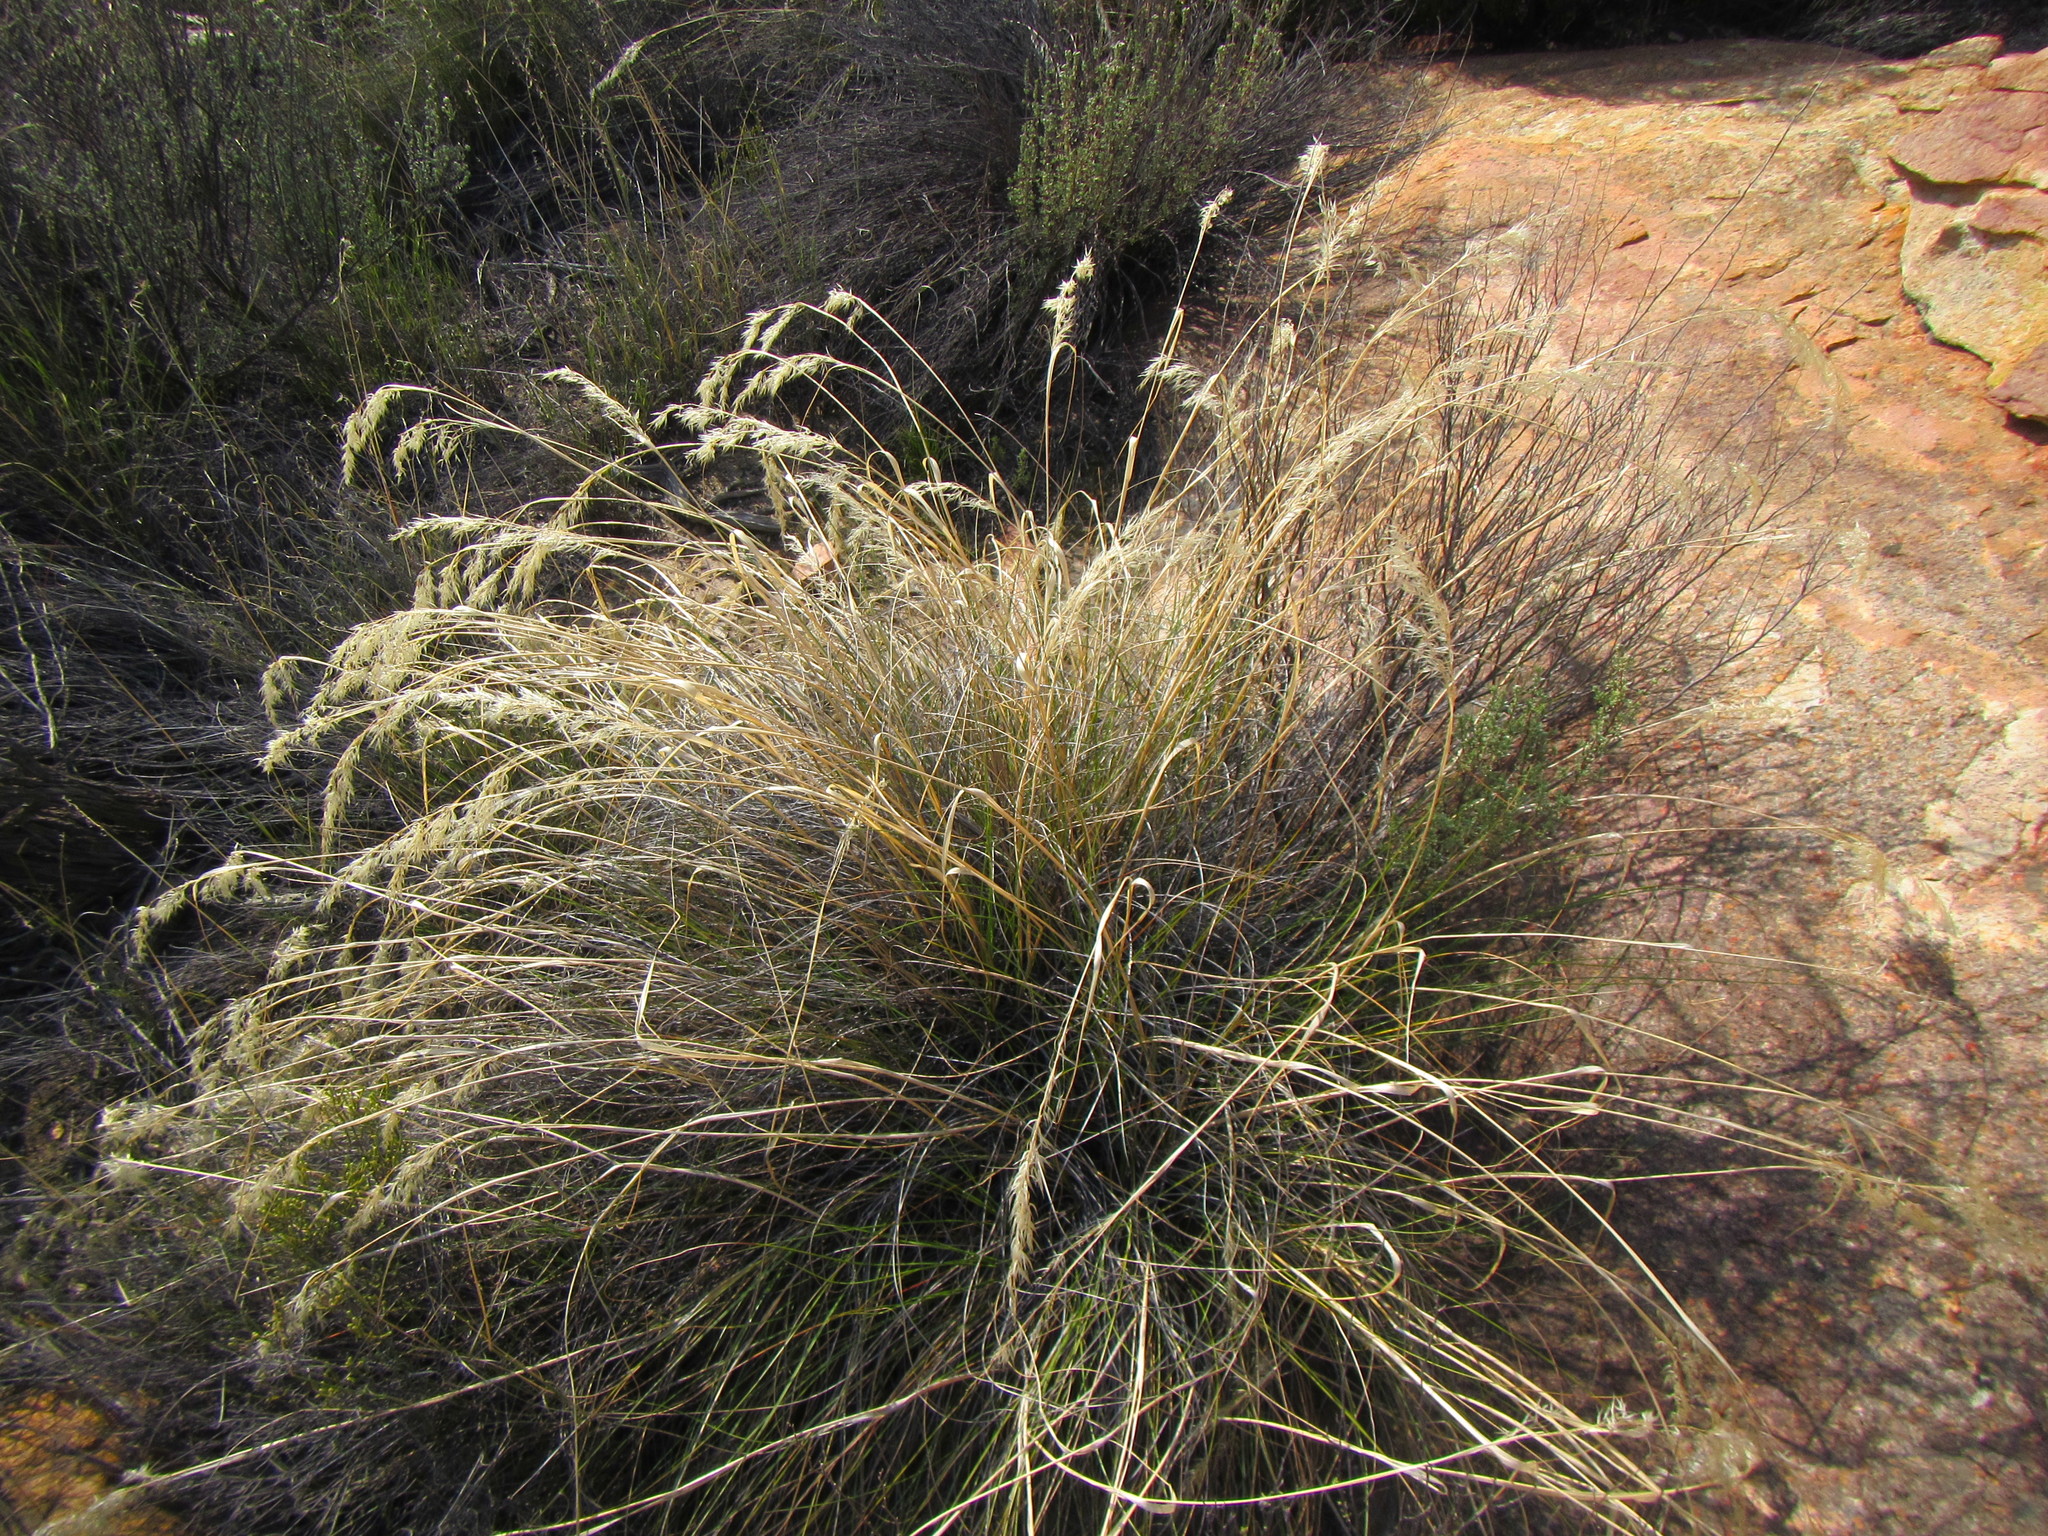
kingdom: Plantae
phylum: Tracheophyta
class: Liliopsida
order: Poales
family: Poaceae
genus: Pentameris
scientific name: Pentameris eriostoma
